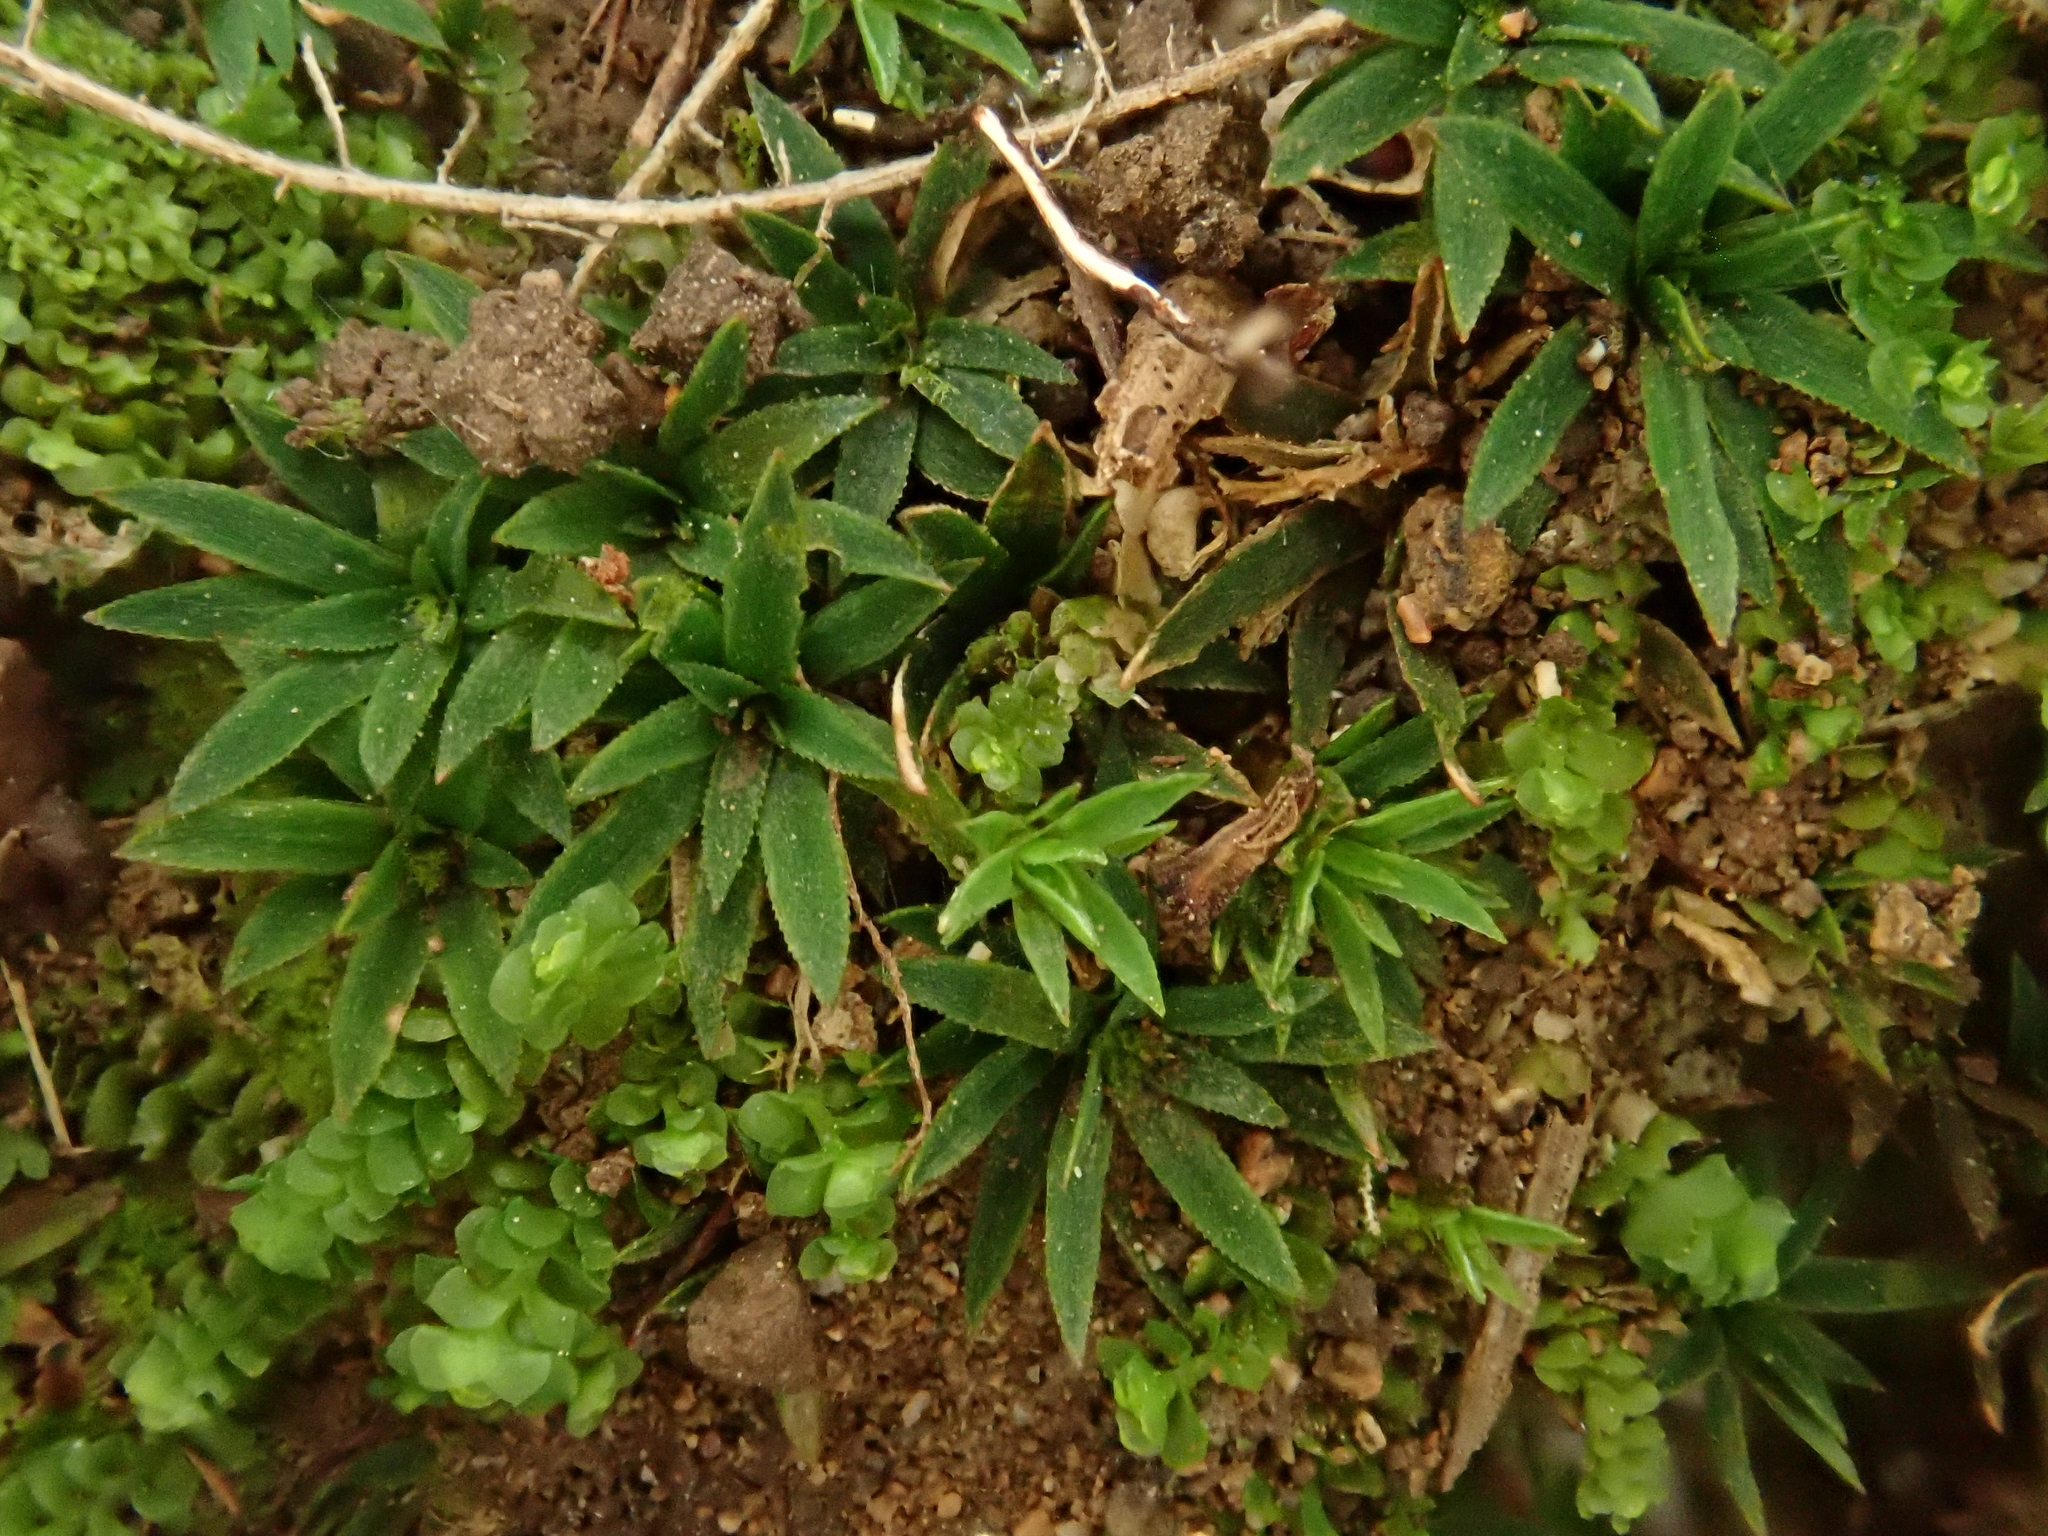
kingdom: Plantae
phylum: Bryophyta
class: Polytrichopsida
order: Polytrichales
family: Polytrichaceae
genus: Pogonatum
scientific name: Pogonatum aloides
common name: Aloe haircap
